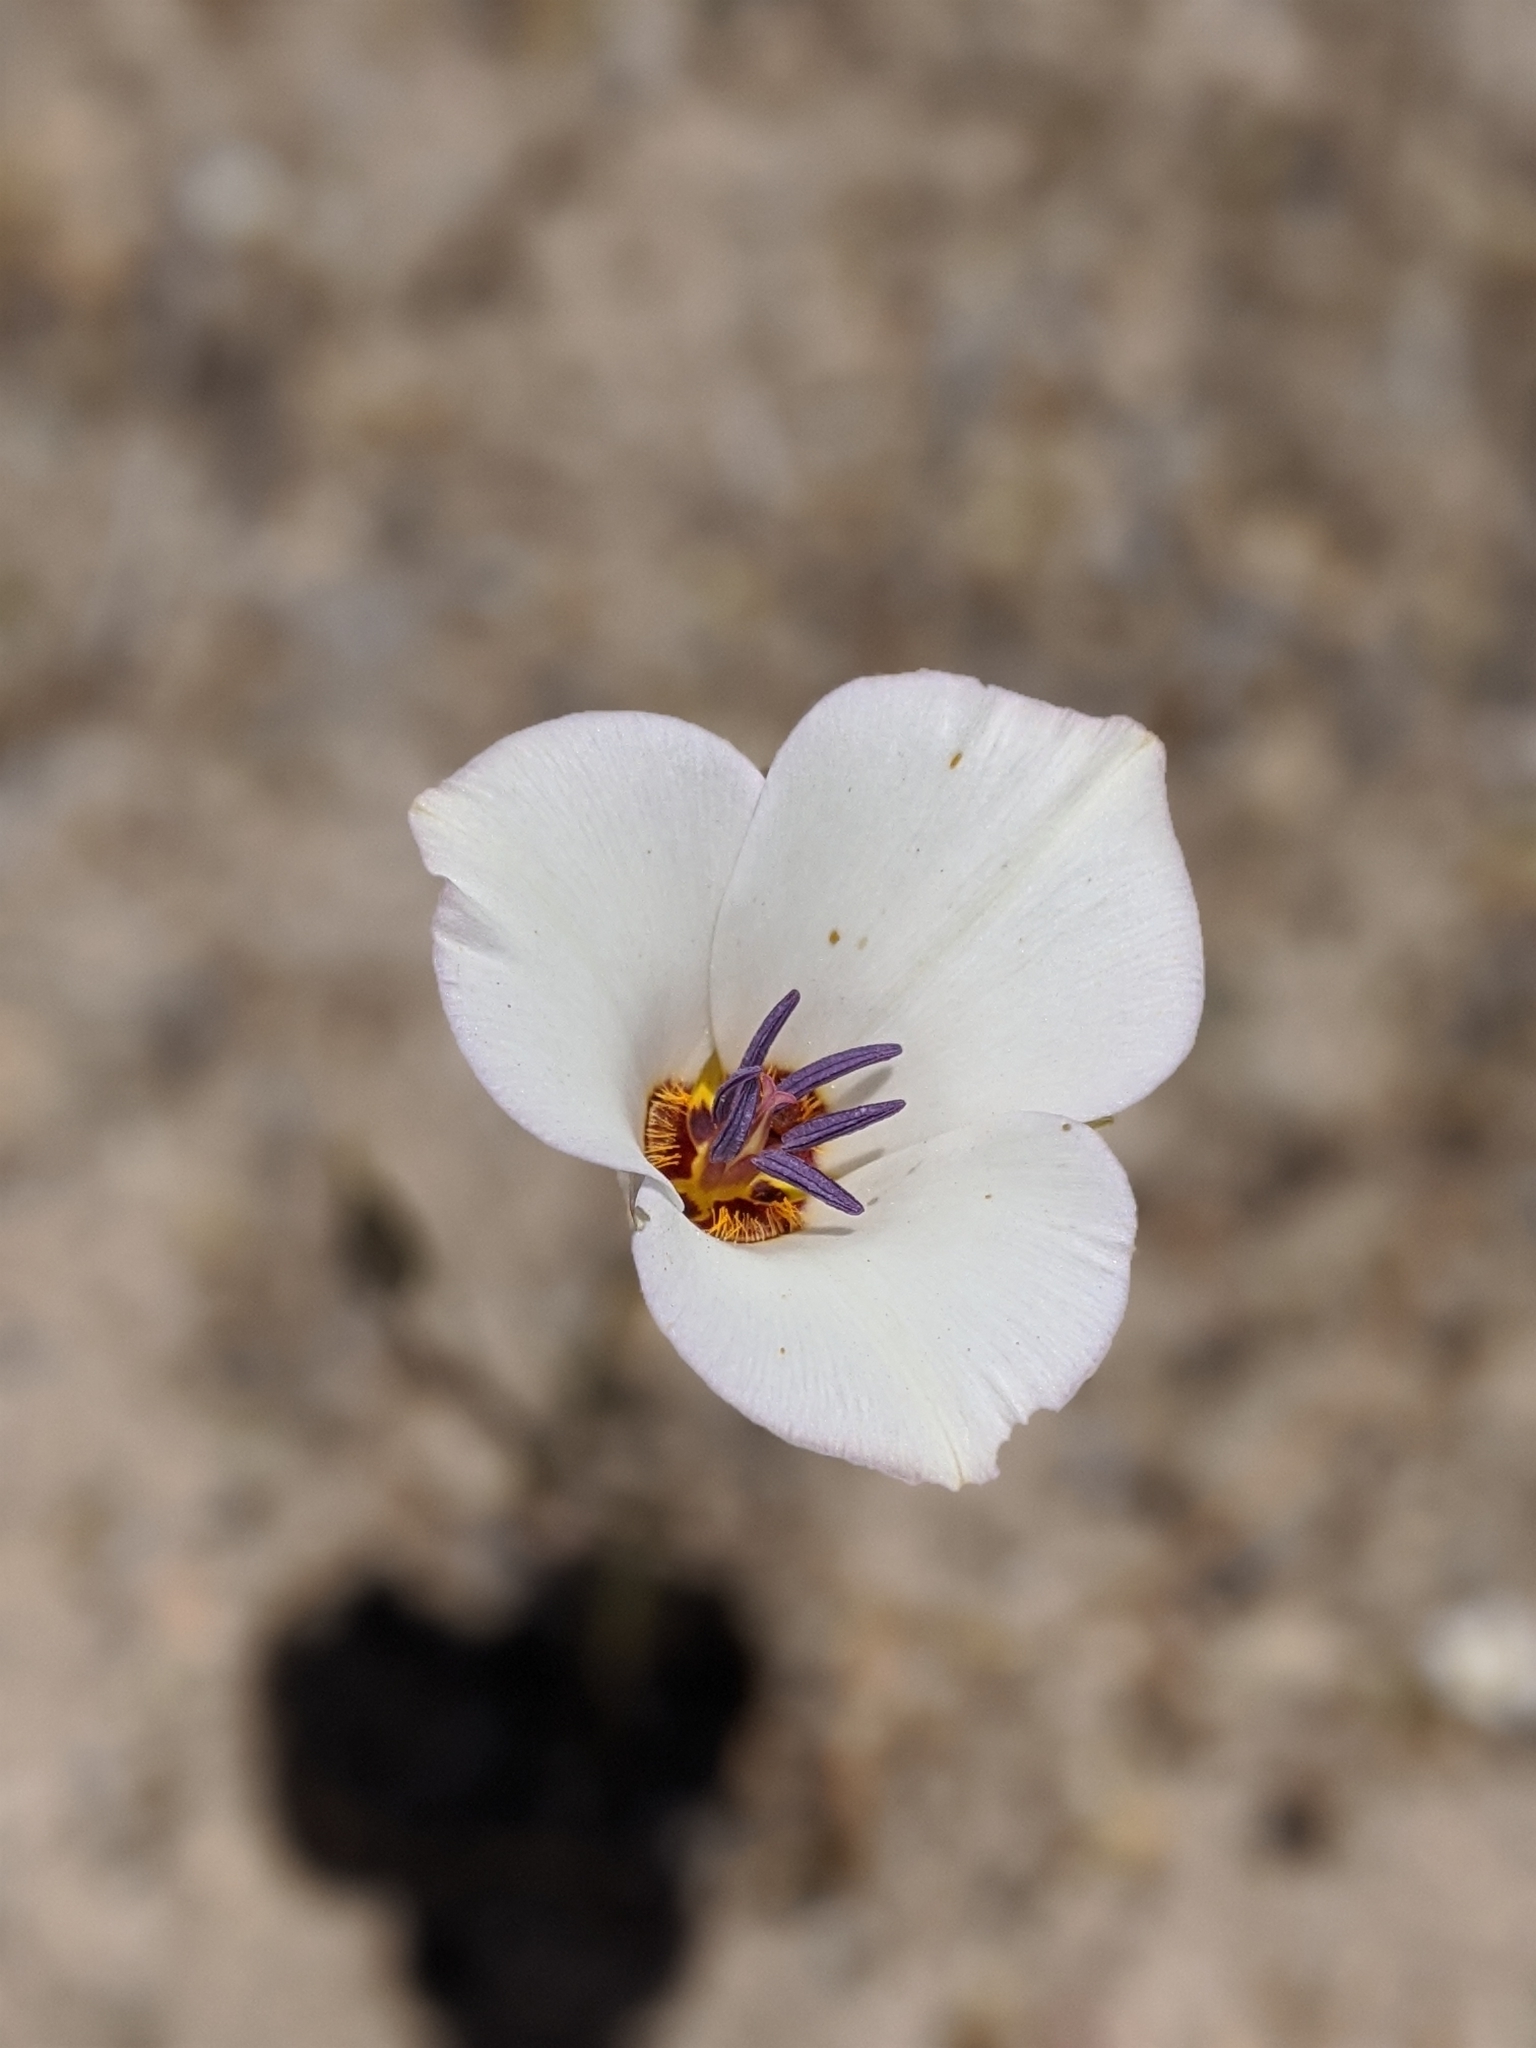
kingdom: Plantae
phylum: Tracheophyta
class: Liliopsida
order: Liliales
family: Liliaceae
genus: Calochortus
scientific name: Calochortus bruneaunis
